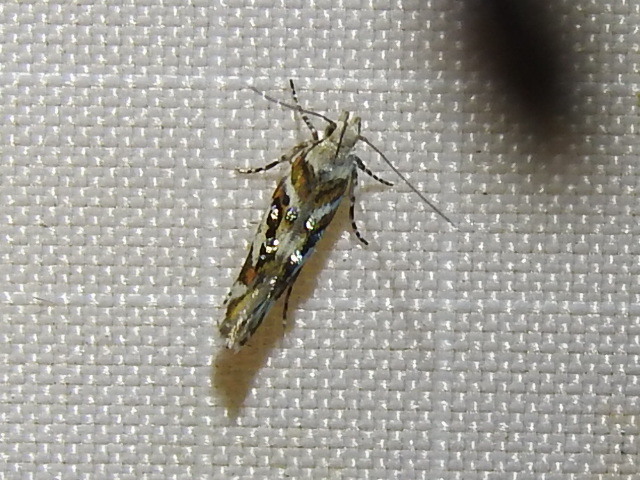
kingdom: Animalia
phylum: Arthropoda
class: Insecta
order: Lepidoptera
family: Gelechiidae
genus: Aristotelia
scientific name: Aristotelia elegantella
